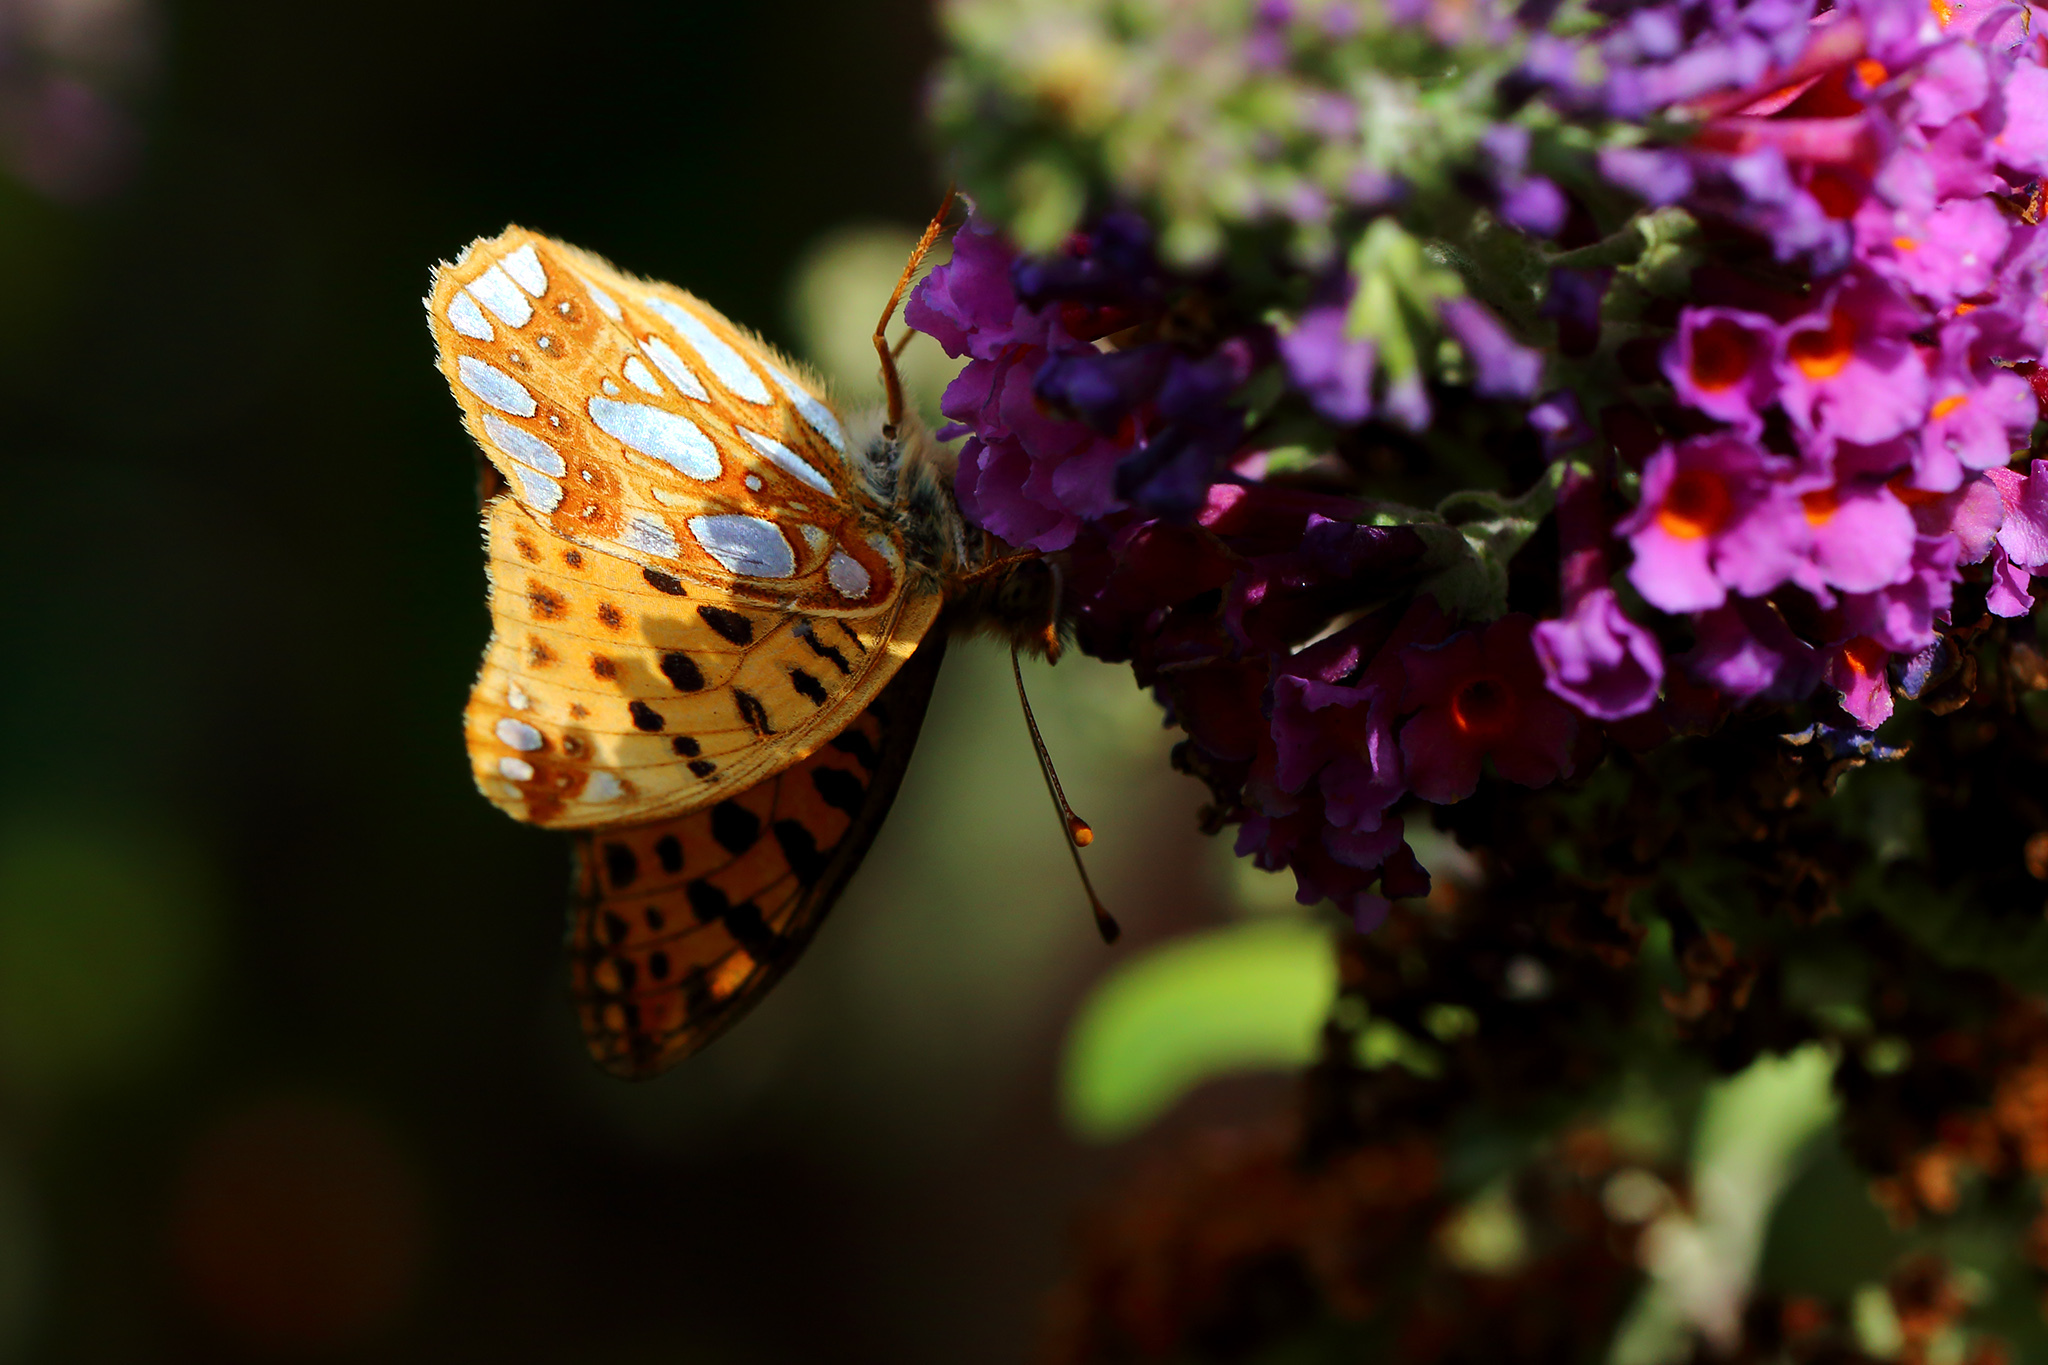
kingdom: Animalia
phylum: Arthropoda
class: Insecta
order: Lepidoptera
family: Nymphalidae
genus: Issoria
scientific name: Issoria lathonia
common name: Queen of spain fritillary
